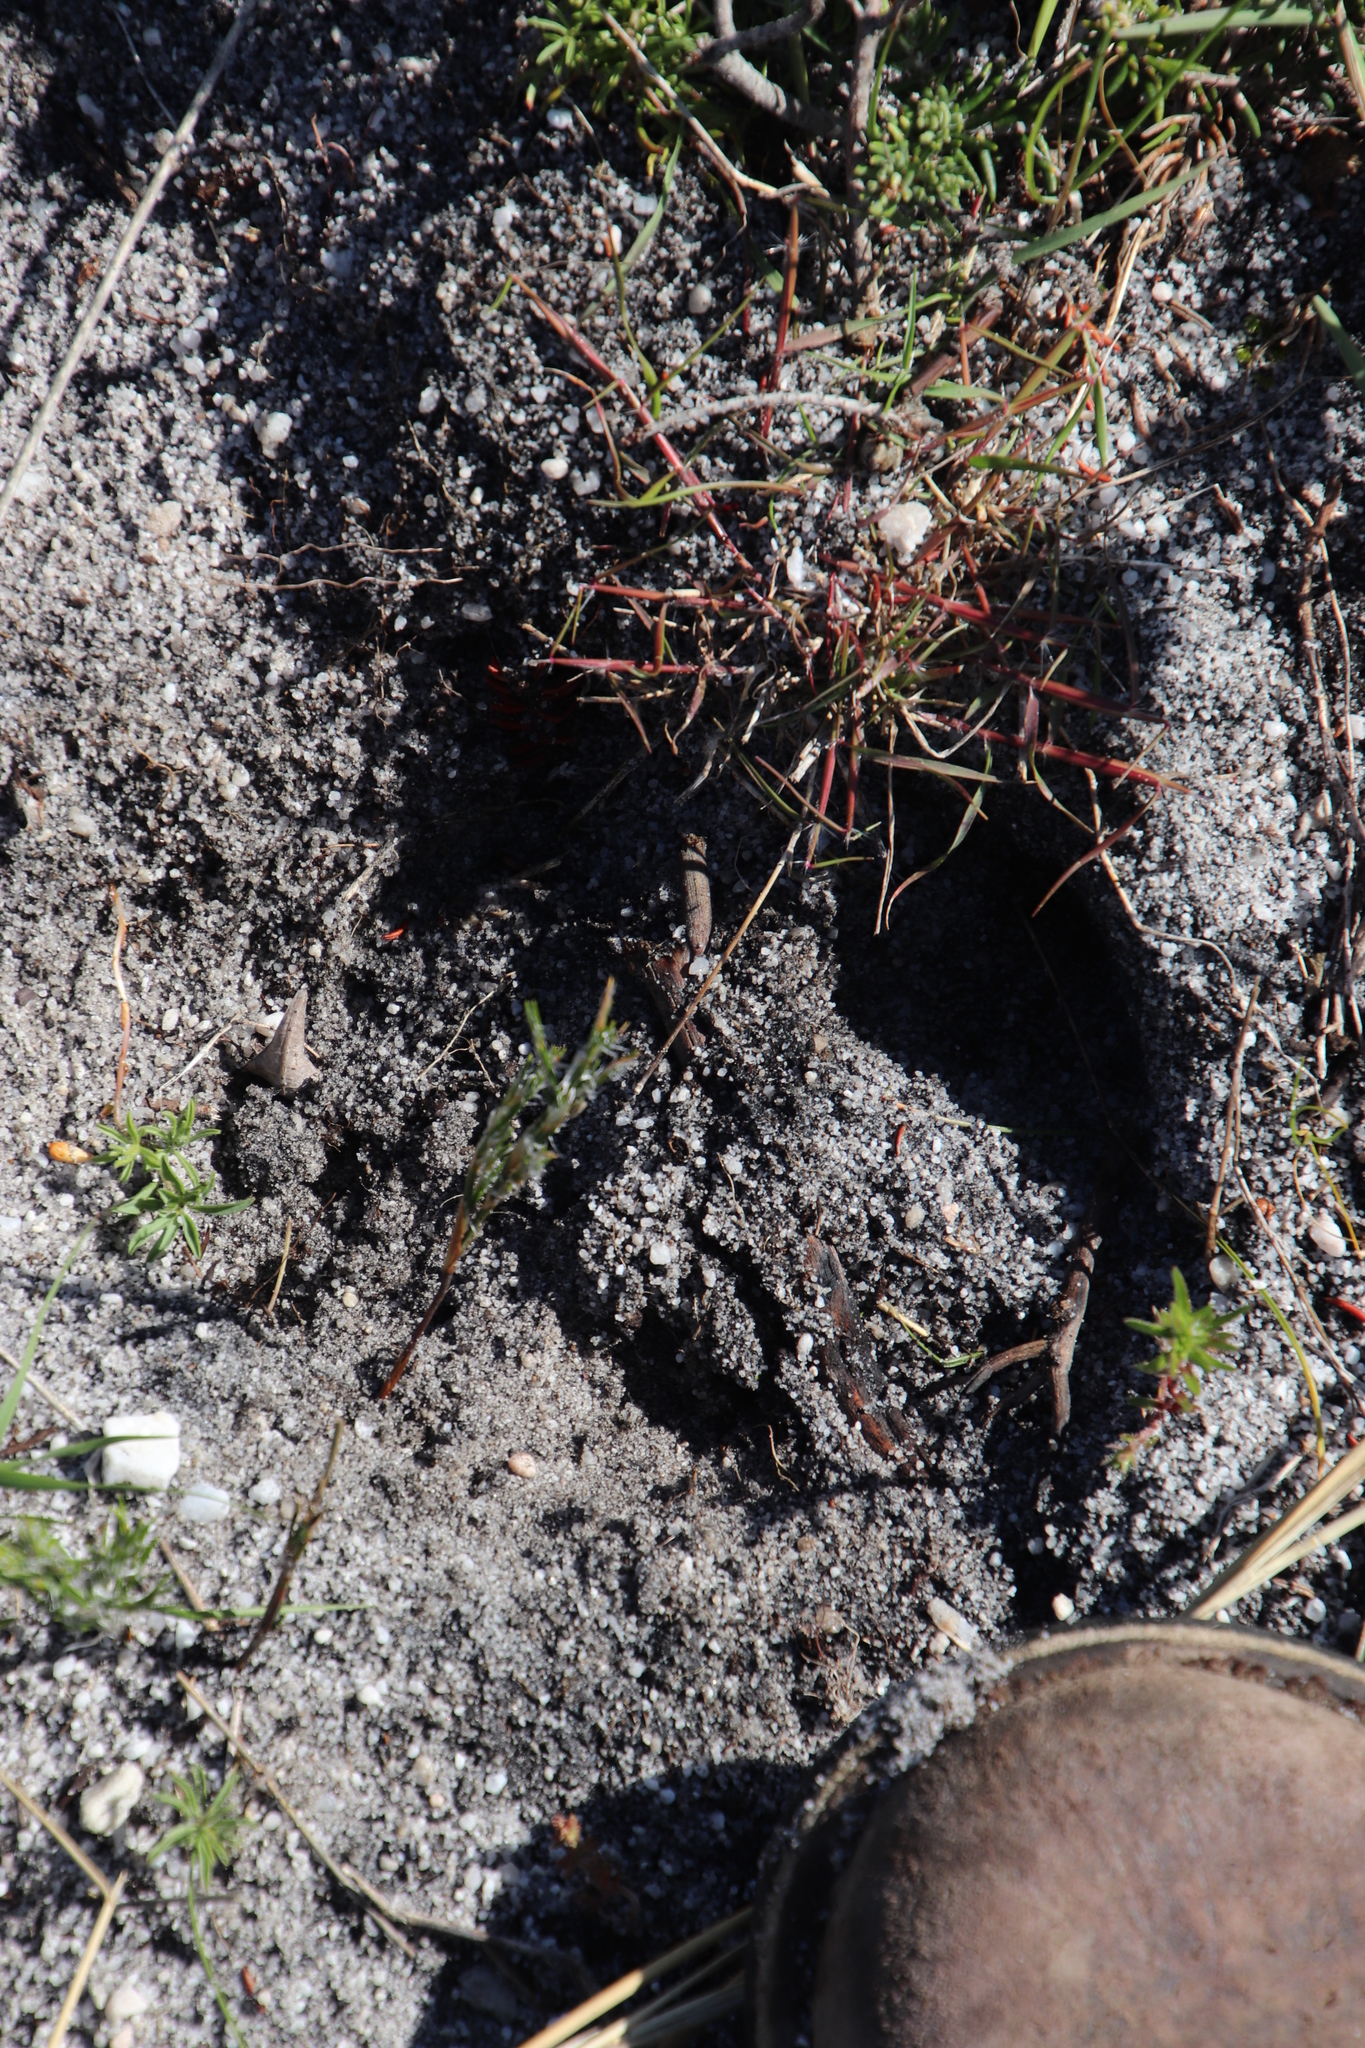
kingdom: Animalia
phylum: Chordata
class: Mammalia
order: Artiodactyla
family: Bovidae
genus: Taurotragus
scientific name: Taurotragus oryx
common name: Common eland
